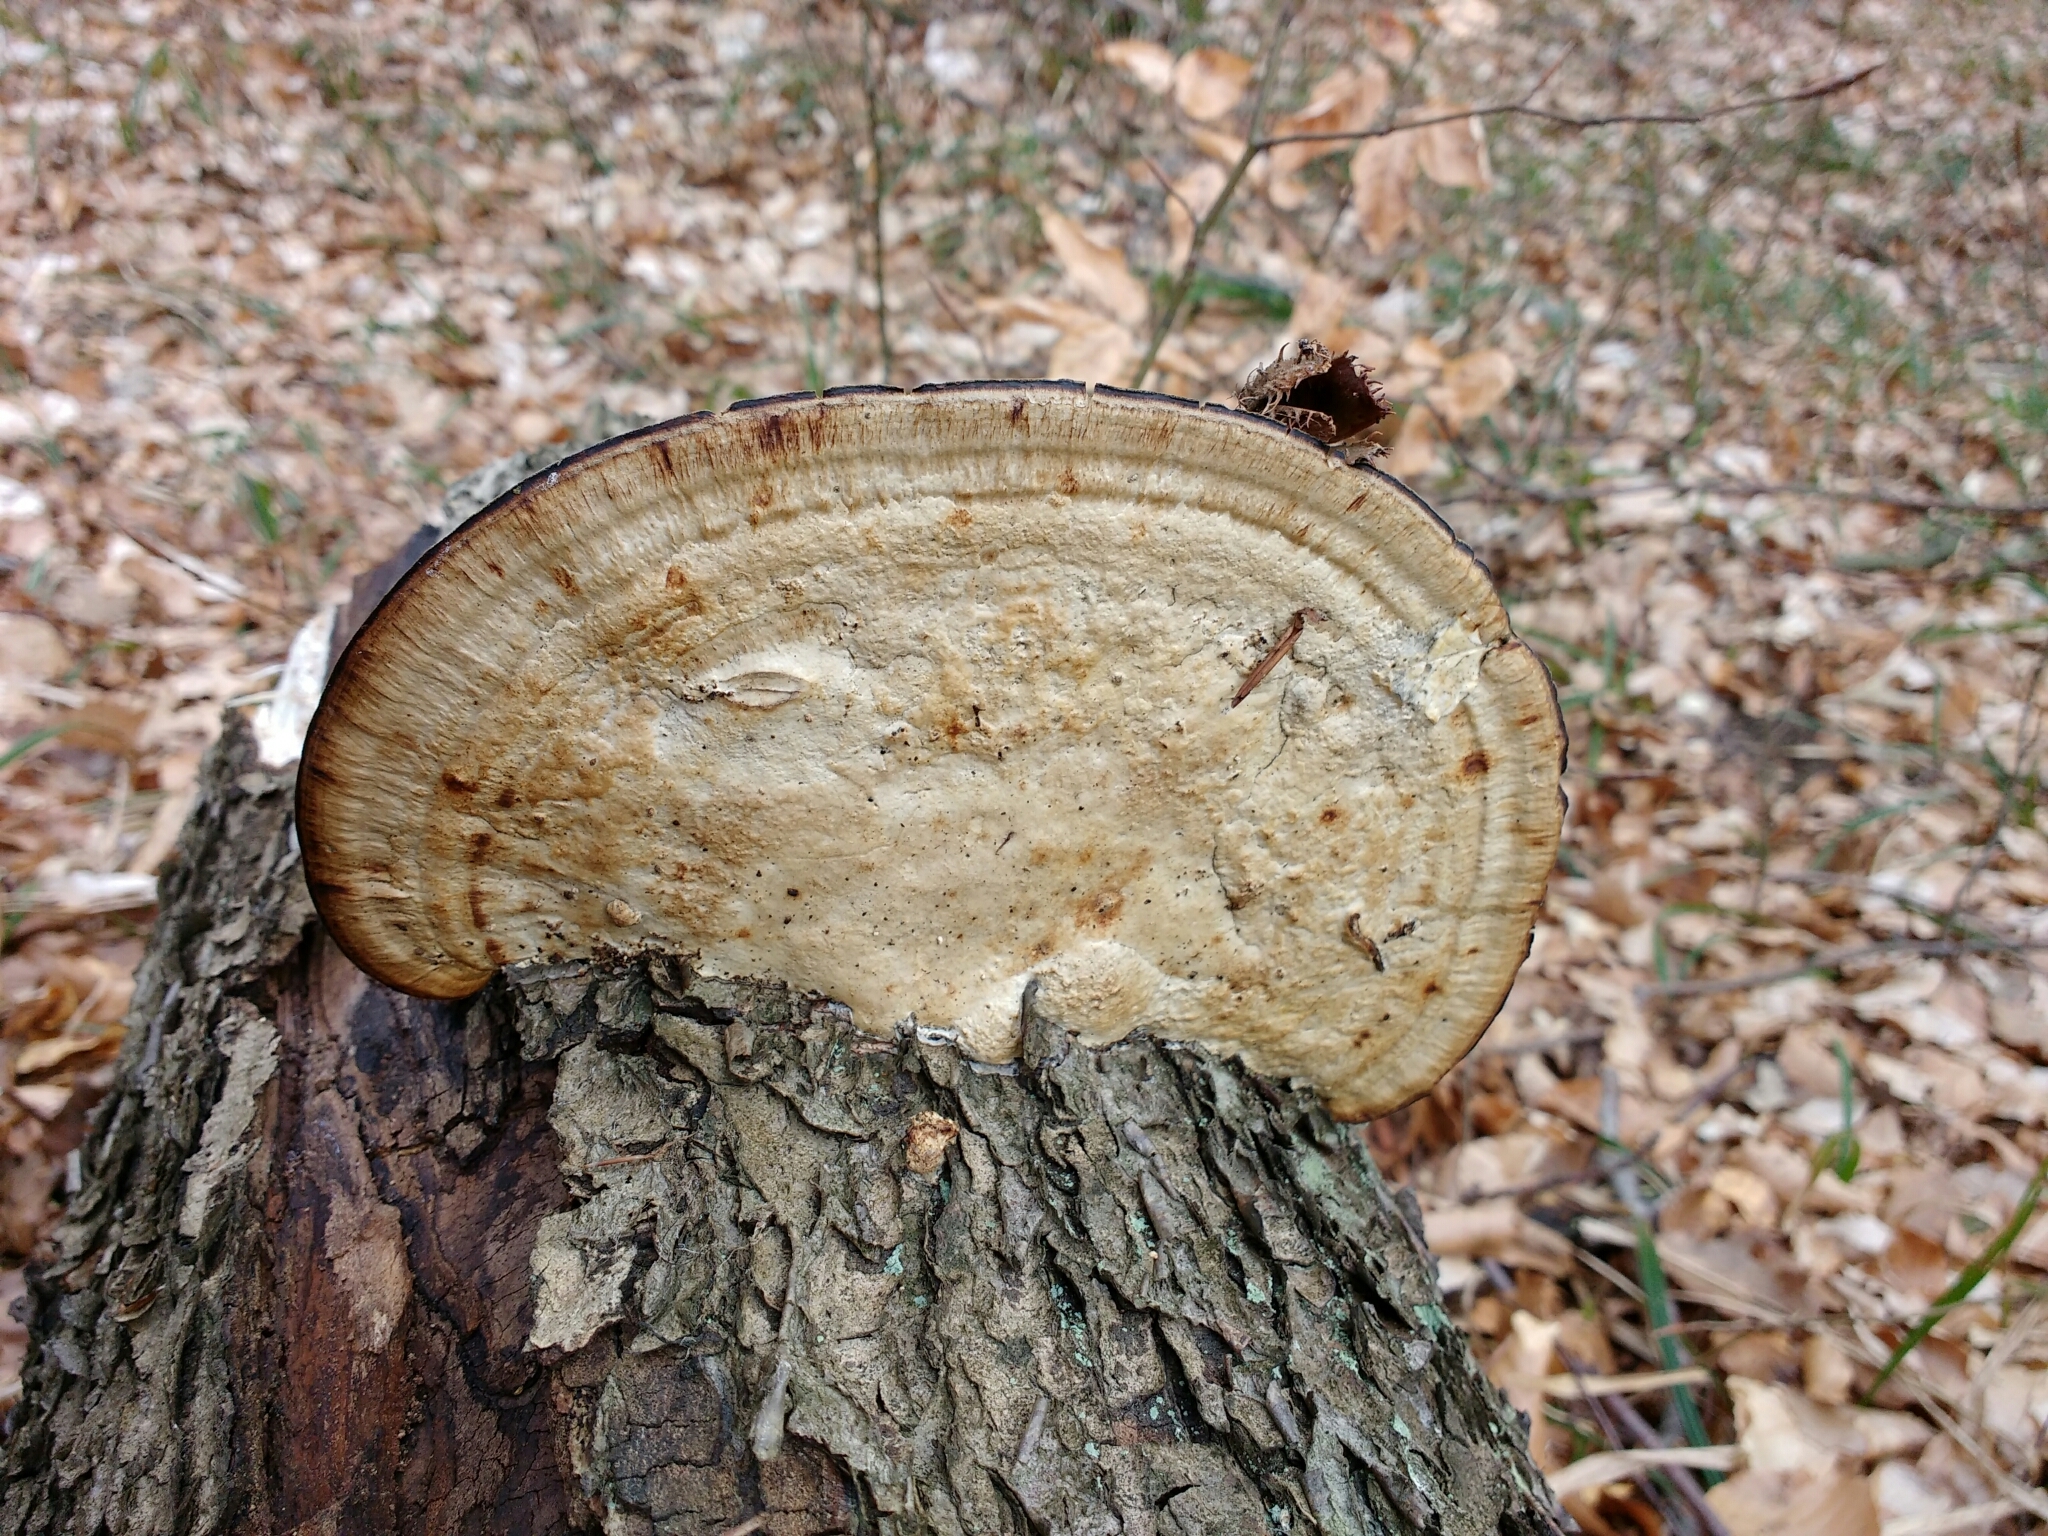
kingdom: Fungi
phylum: Basidiomycota
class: Agaricomycetes
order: Polyporales
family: Polyporaceae
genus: Daedaleopsis
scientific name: Daedaleopsis confragosa
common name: Blushing bracket
